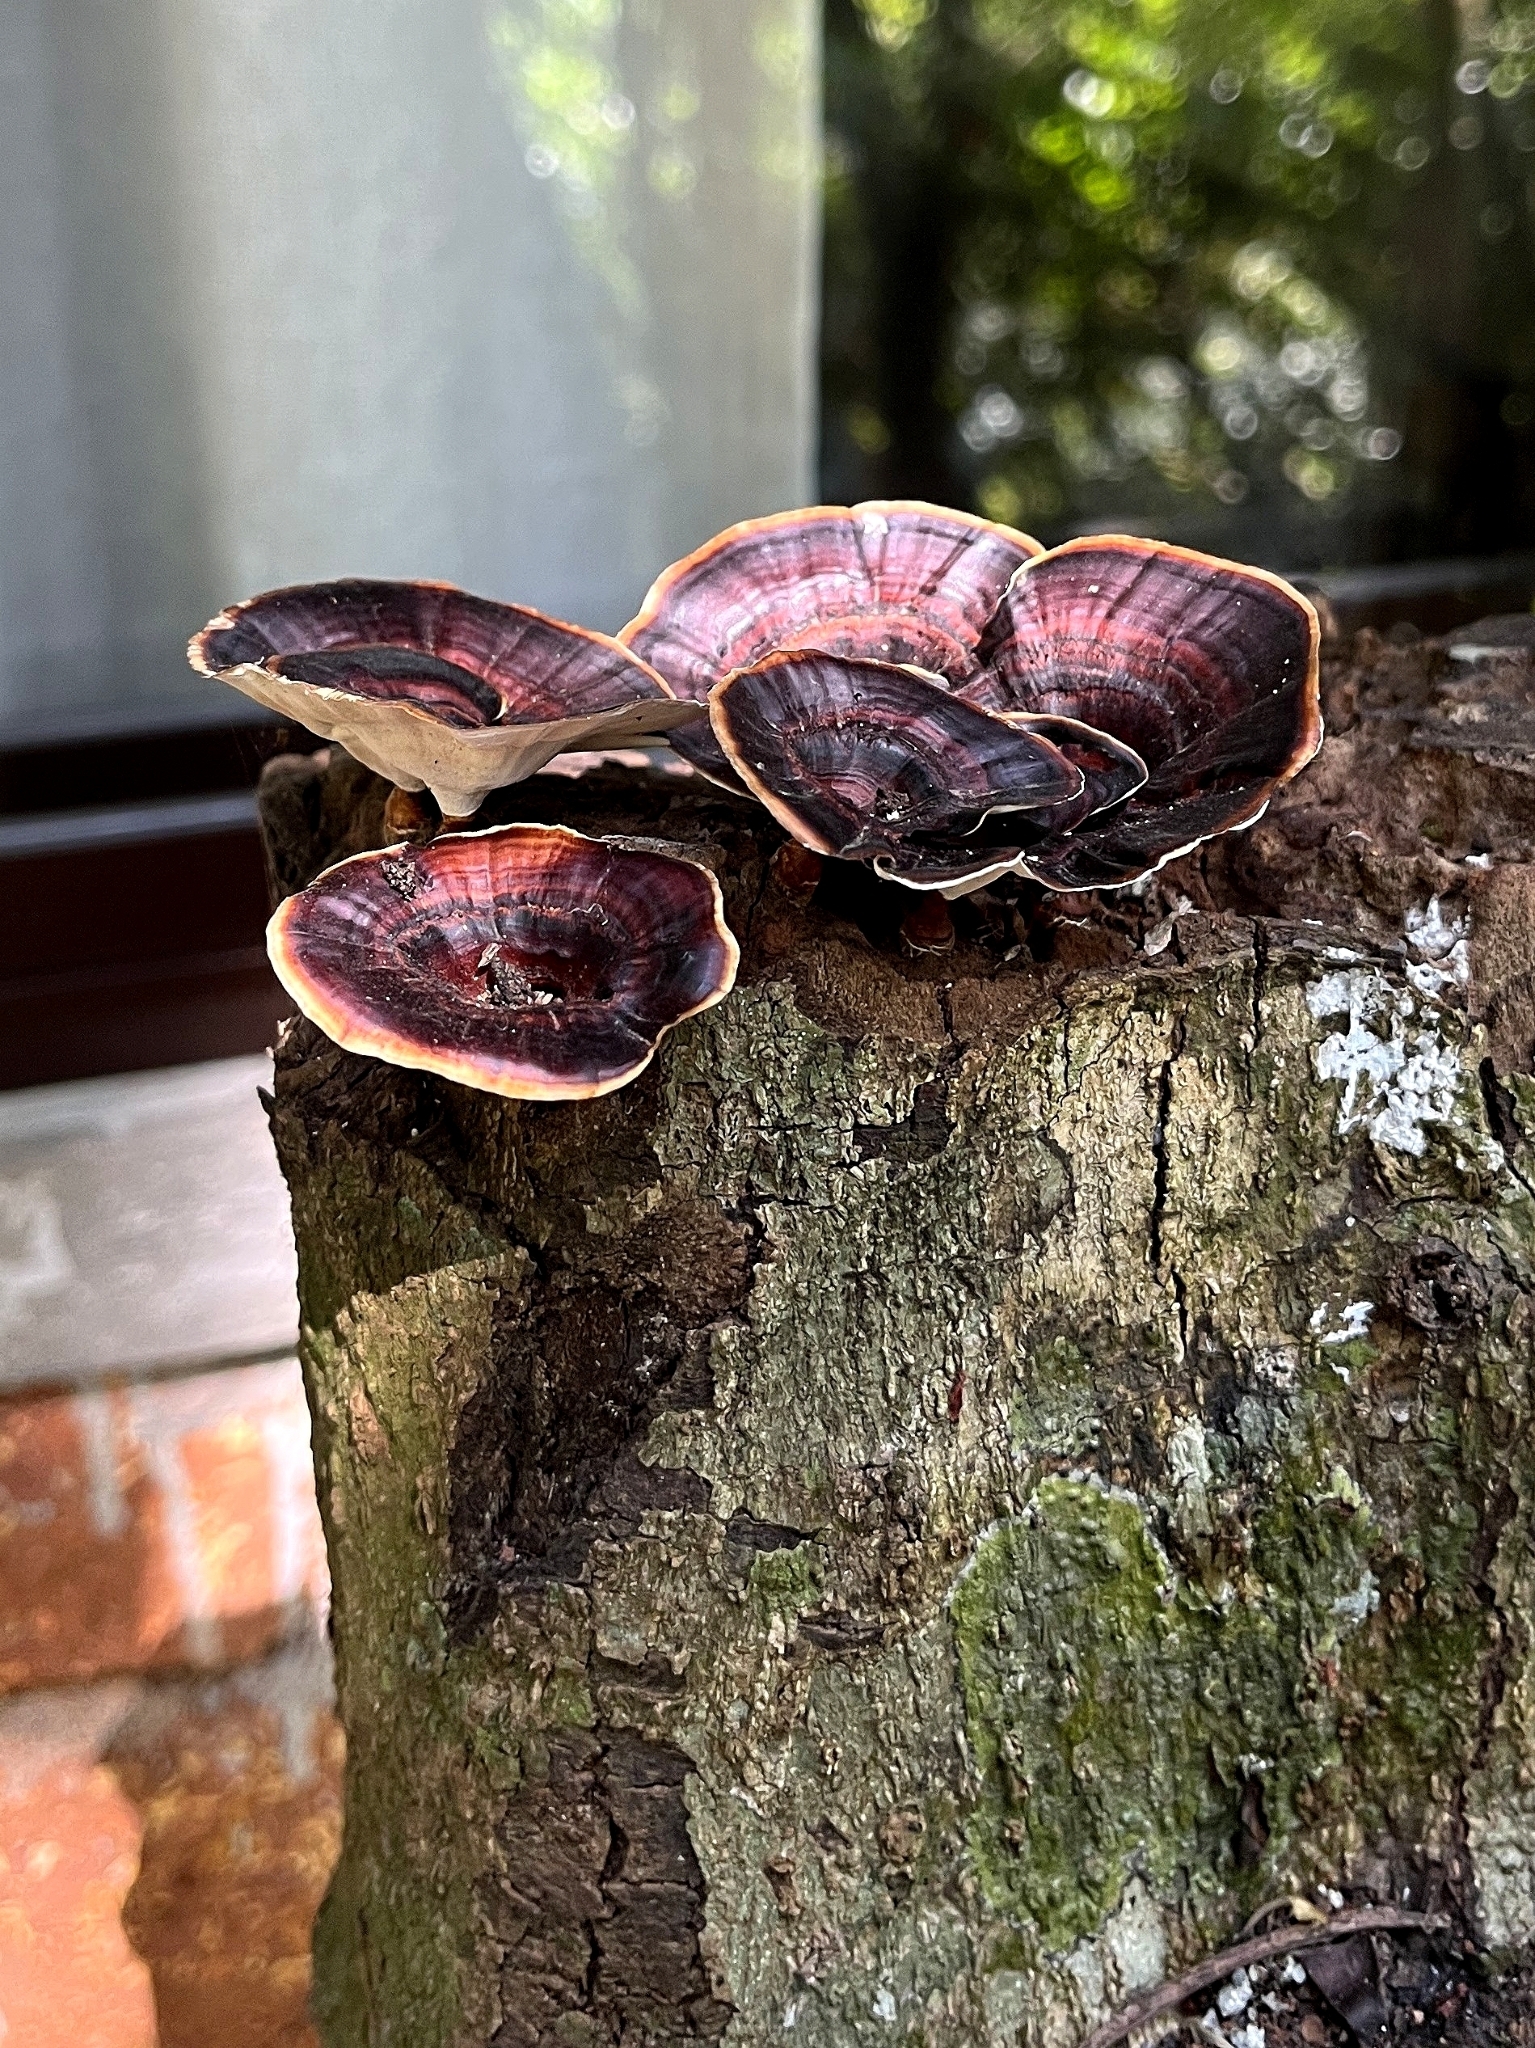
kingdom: Fungi
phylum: Basidiomycota
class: Agaricomycetes
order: Polyporales
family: Polyporaceae
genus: Microporus
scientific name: Microporus xanthopus
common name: Yellow-stemmed micropore
